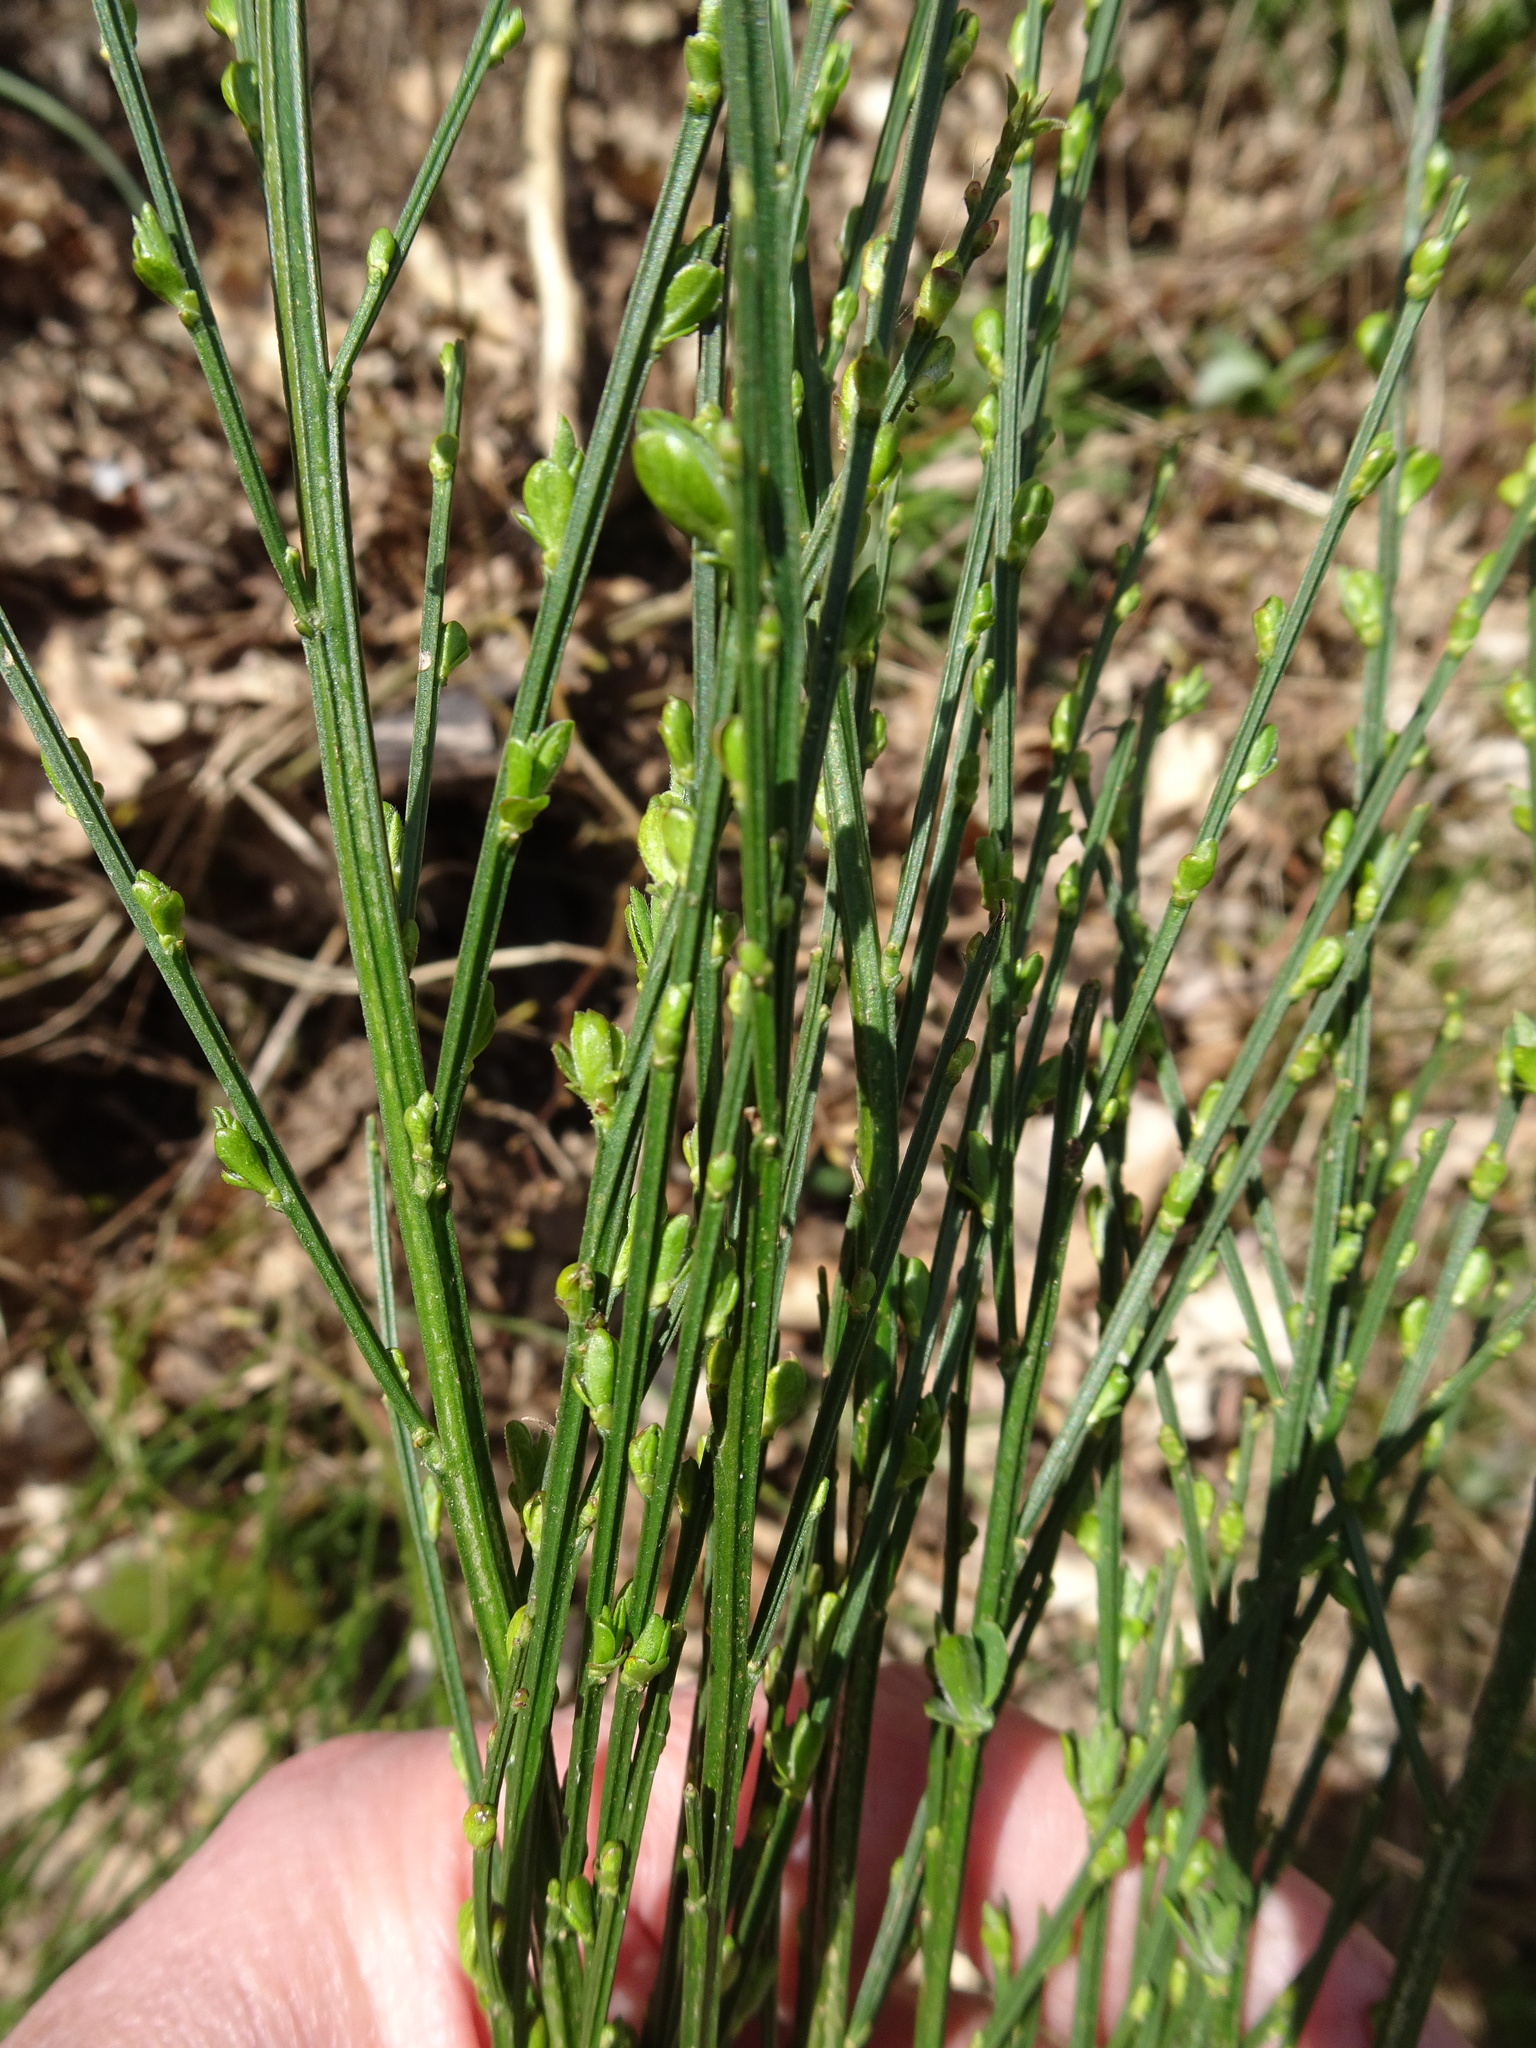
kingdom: Plantae
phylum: Tracheophyta
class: Magnoliopsida
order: Fabales
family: Fabaceae
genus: Cytisus
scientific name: Cytisus scoparius
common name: Scotch broom
